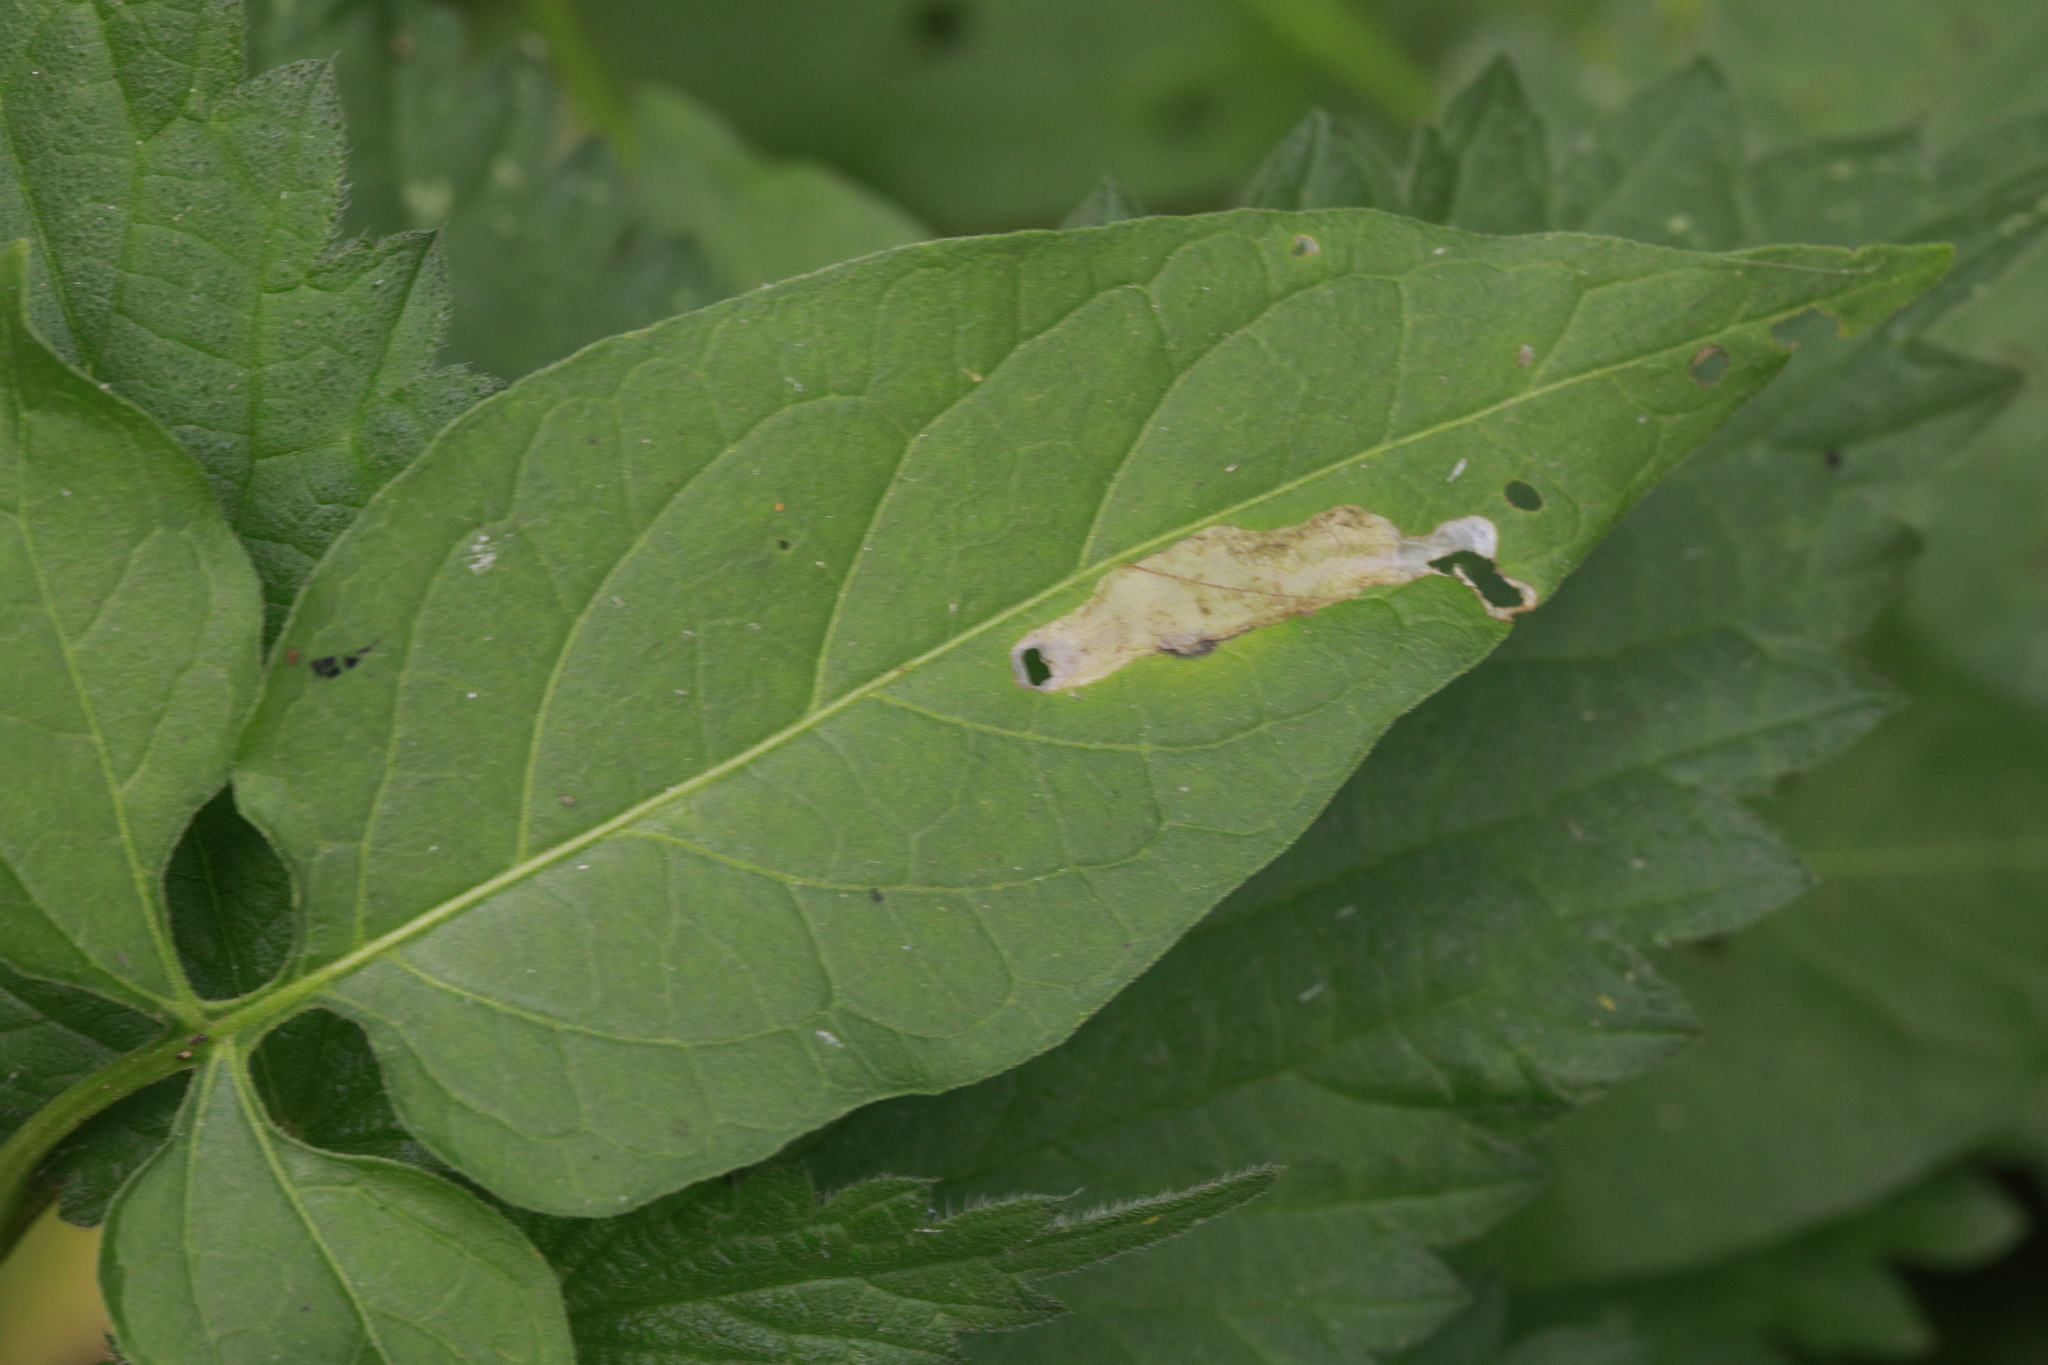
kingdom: Animalia
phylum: Arthropoda
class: Insecta
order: Lepidoptera
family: Glyphipterigidae
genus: Acrolepia
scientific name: Acrolepia pygmaeana
